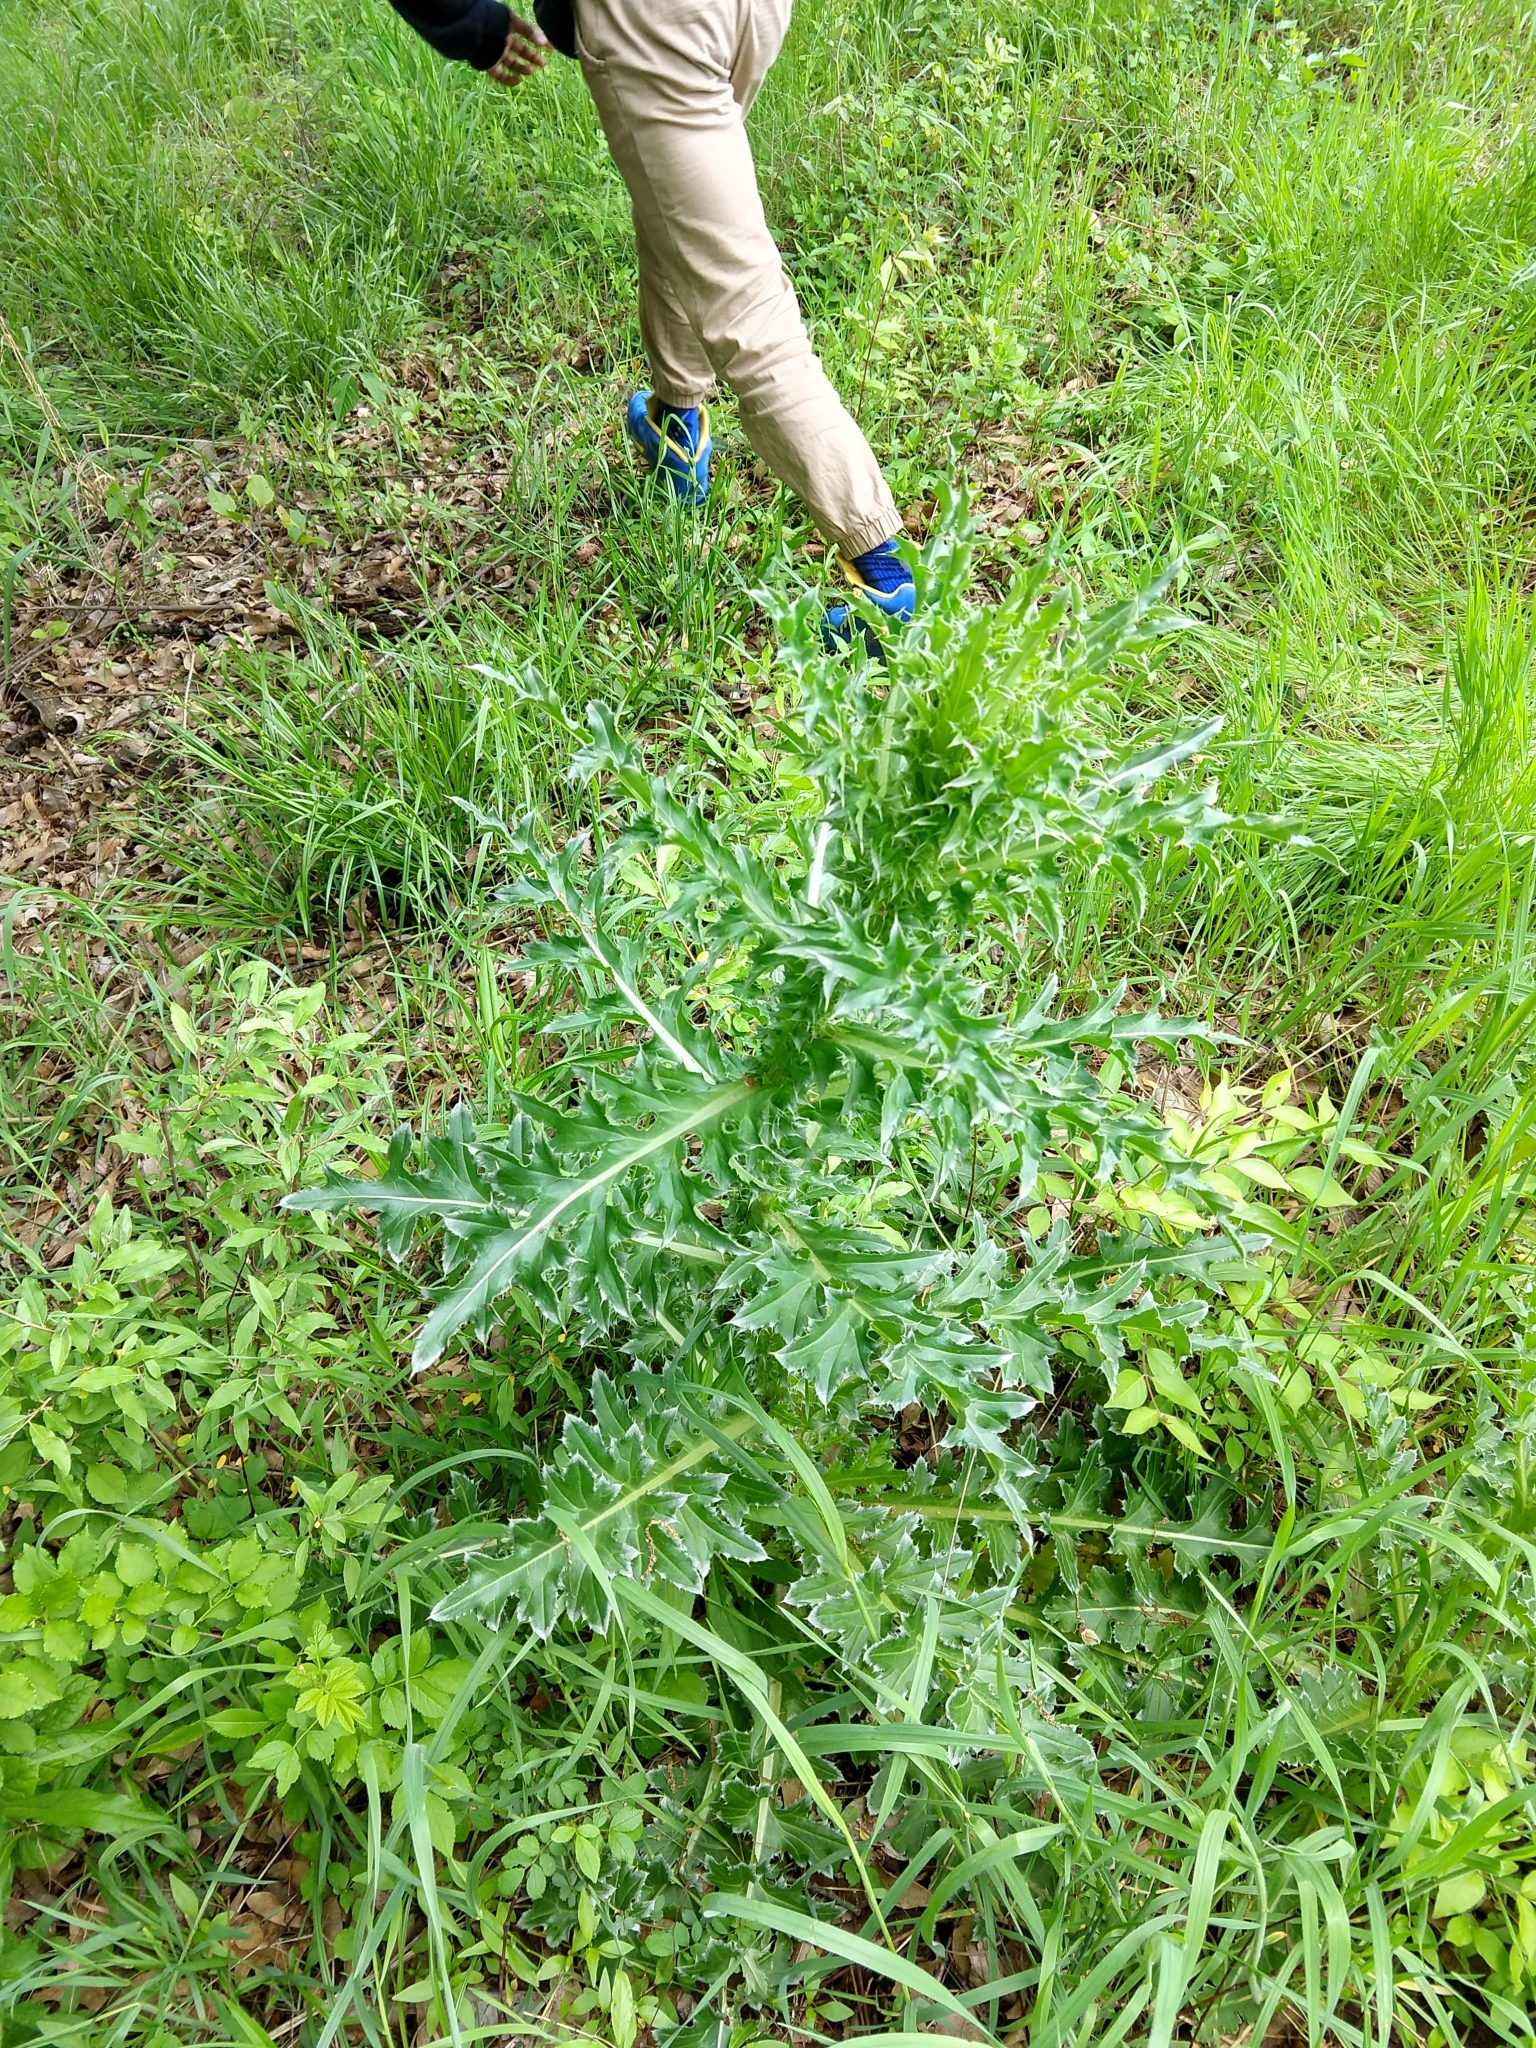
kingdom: Plantae
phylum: Tracheophyta
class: Magnoliopsida
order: Asterales
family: Asteraceae
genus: Carduus
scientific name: Carduus nutans
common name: Musk thistle
